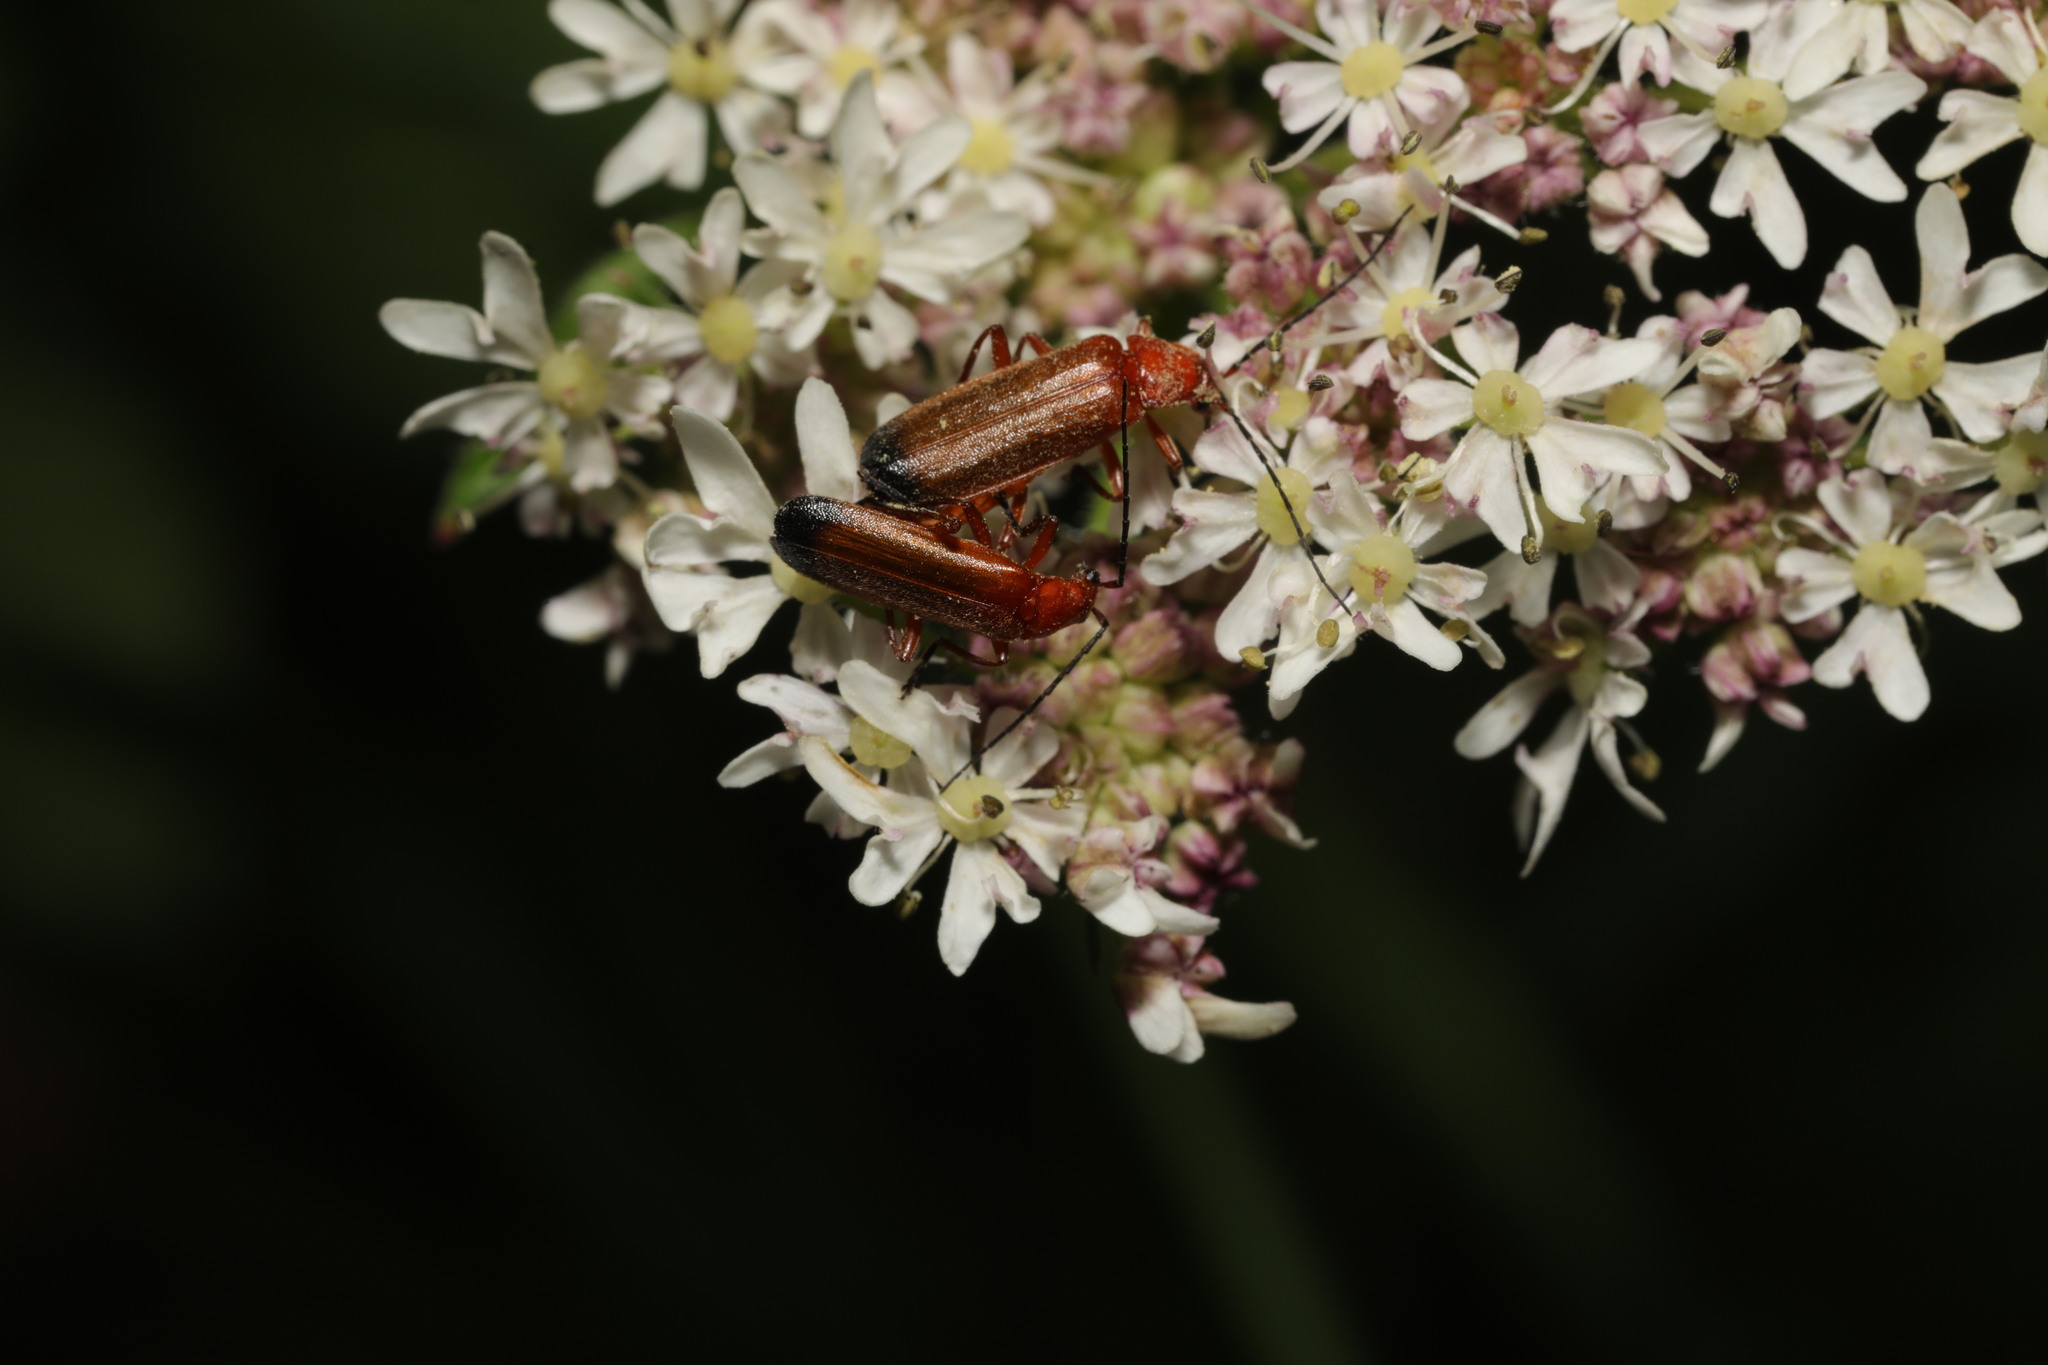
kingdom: Animalia
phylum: Arthropoda
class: Insecta
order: Coleoptera
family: Cantharidae
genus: Rhagonycha
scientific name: Rhagonycha fulva
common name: Common red soldier beetle
